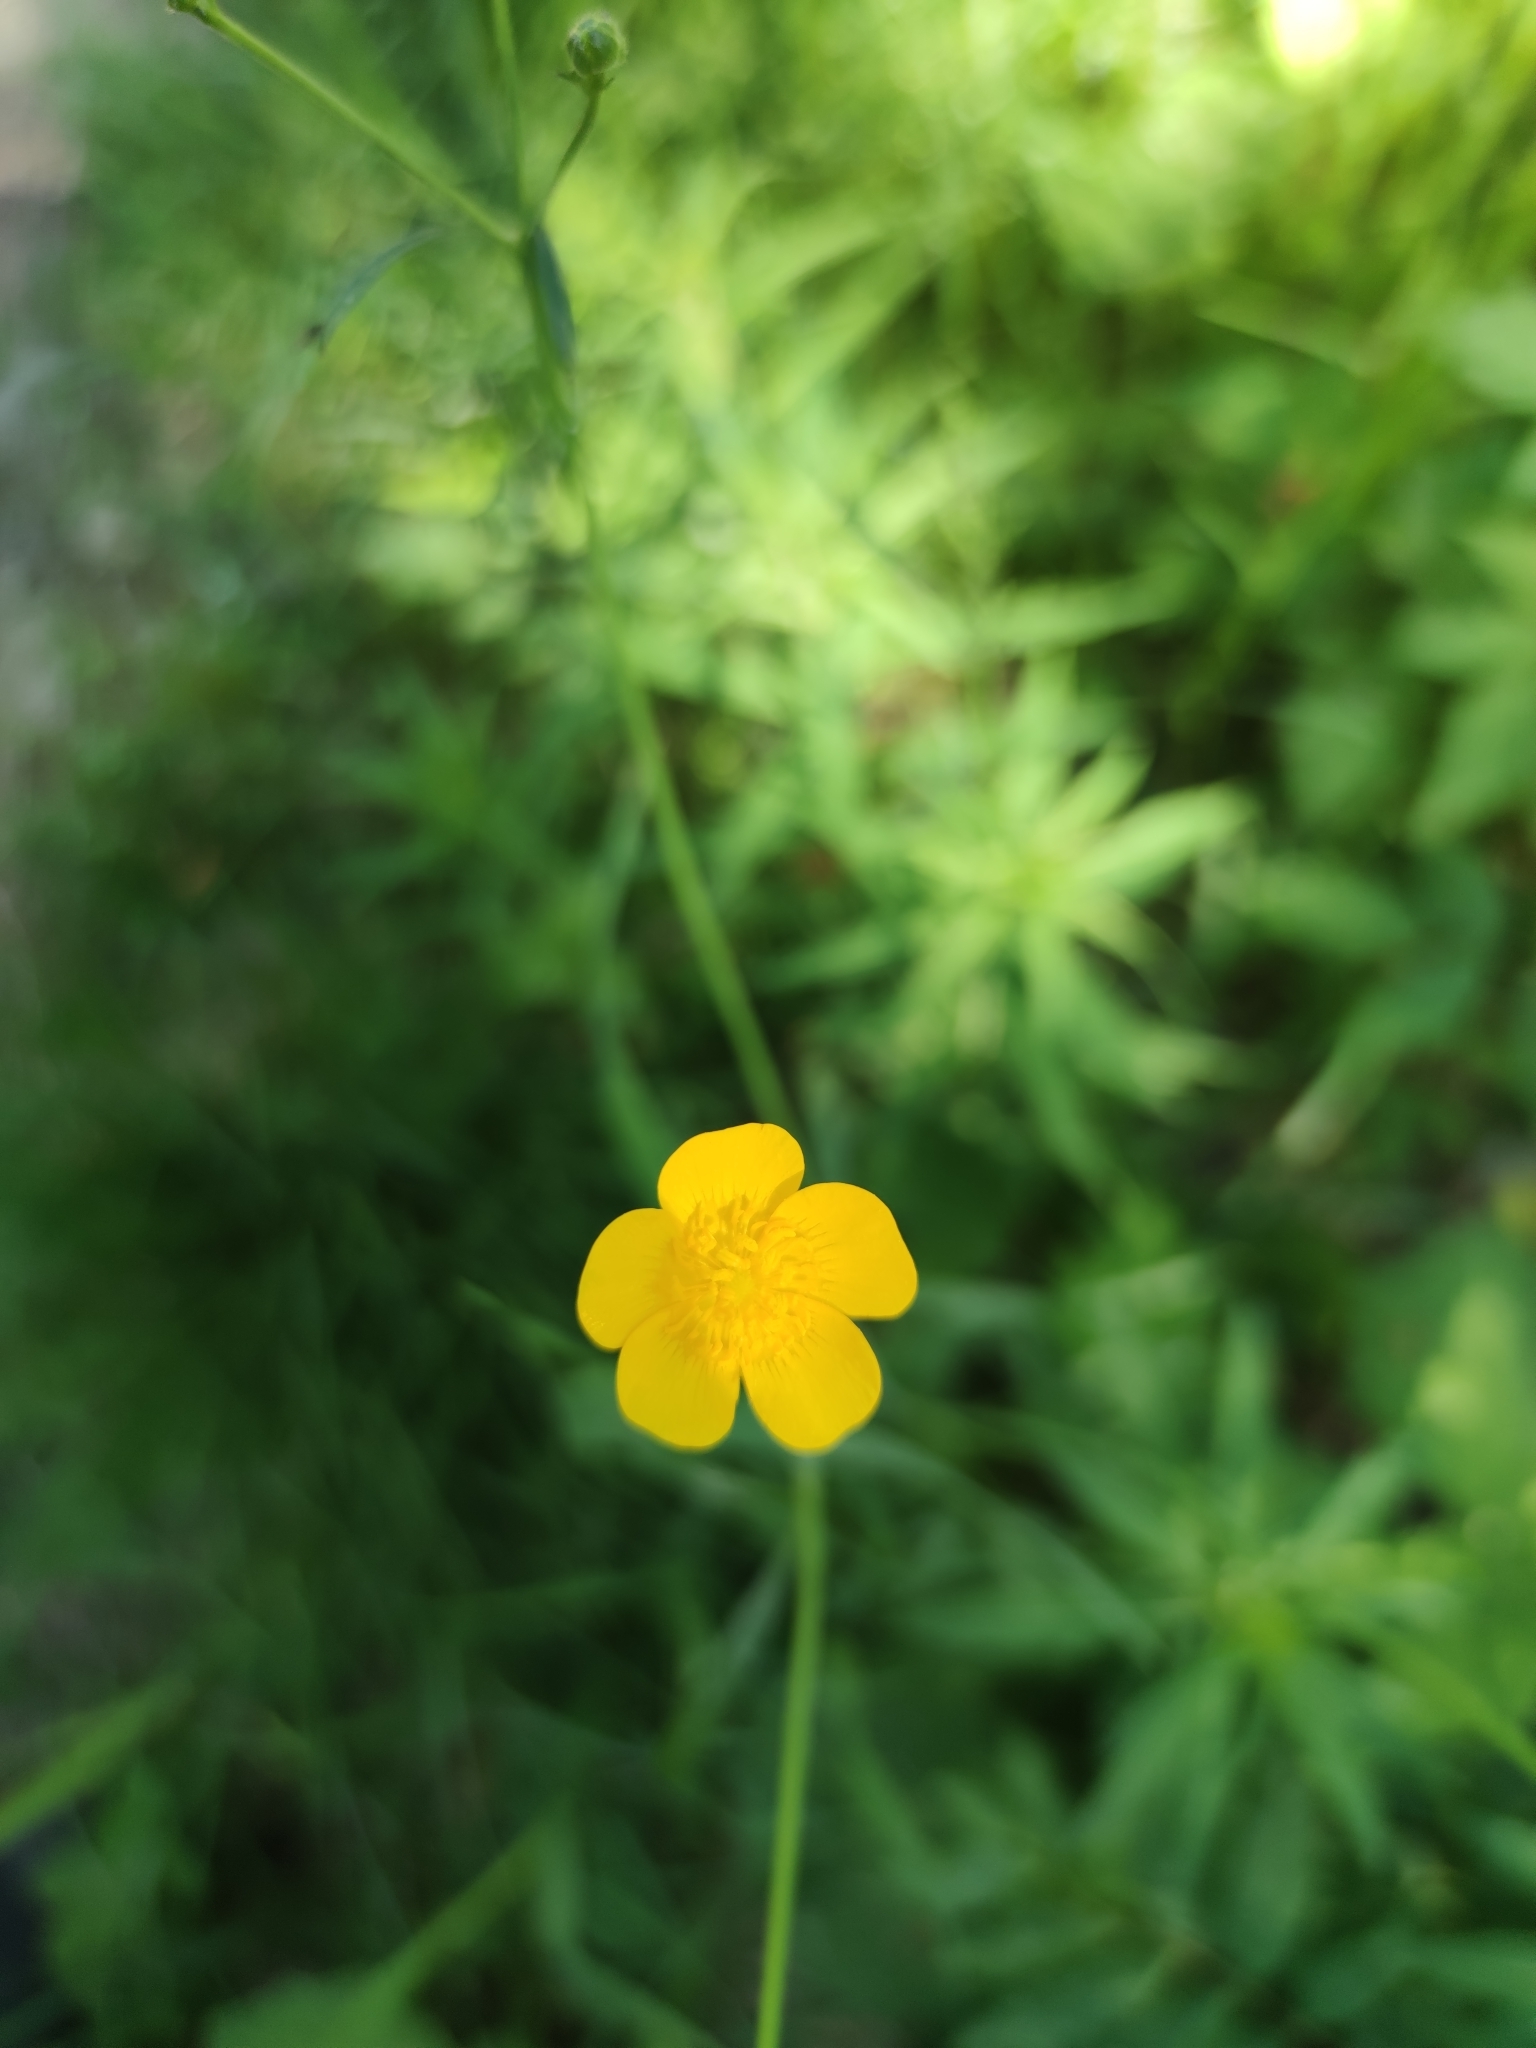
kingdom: Plantae
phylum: Tracheophyta
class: Magnoliopsida
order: Ranunculales
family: Ranunculaceae
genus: Ranunculus
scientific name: Ranunculus acris
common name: Meadow buttercup
